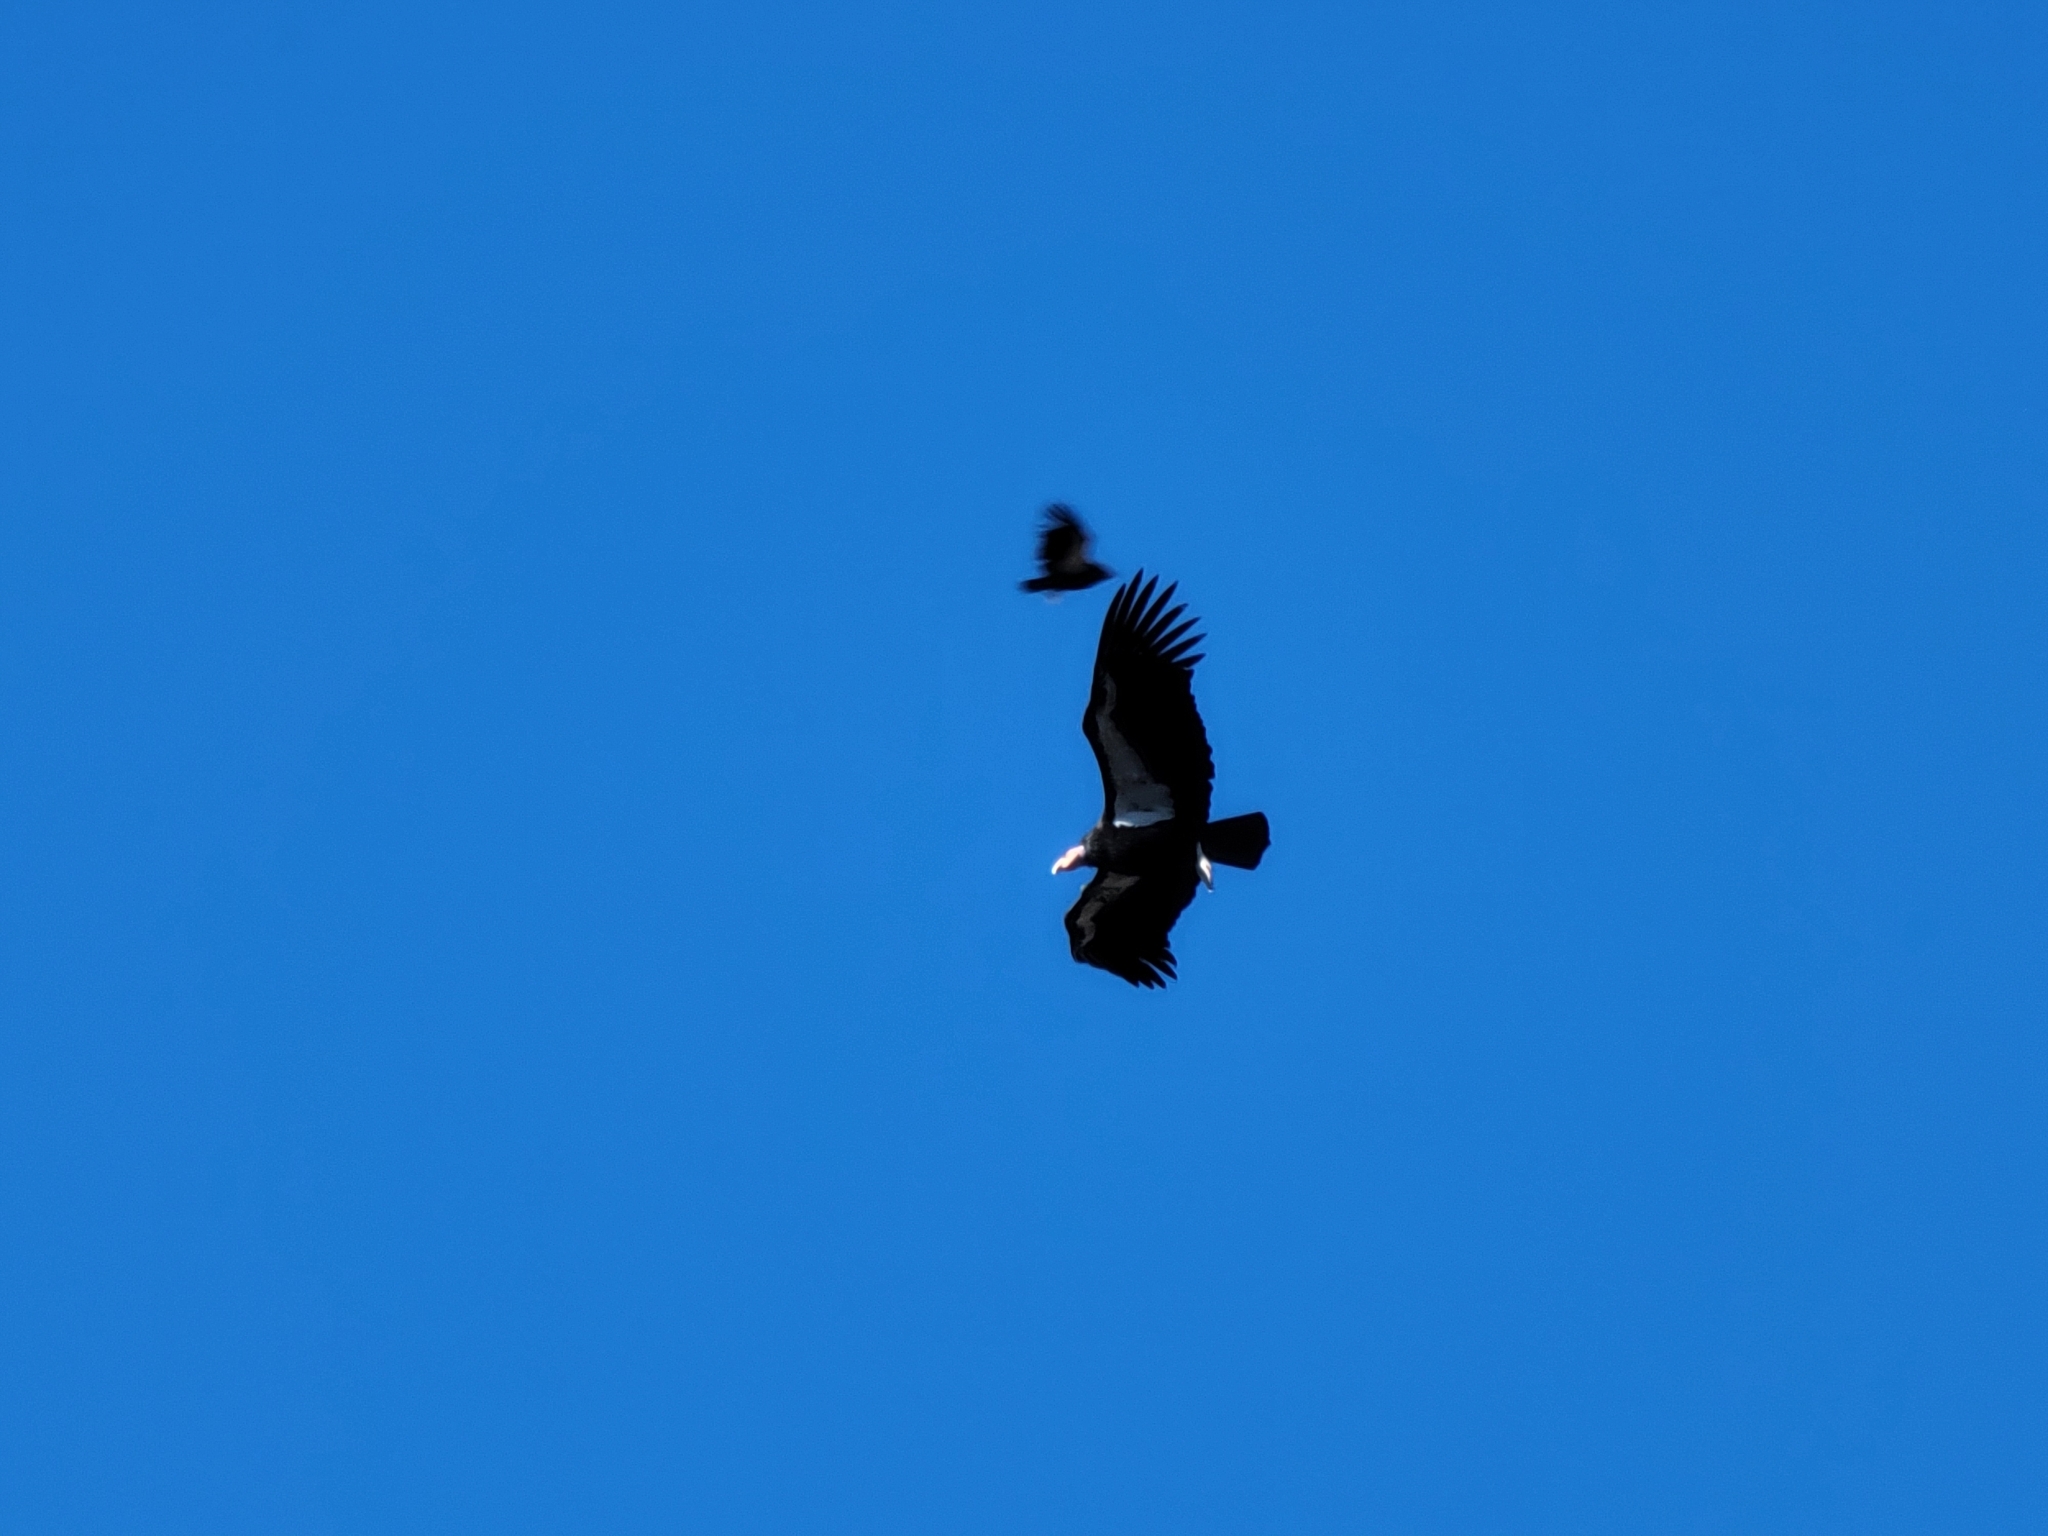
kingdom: Animalia
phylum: Chordata
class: Aves
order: Accipitriformes
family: Cathartidae
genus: Gymnogyps
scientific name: Gymnogyps californianus
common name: California condor
